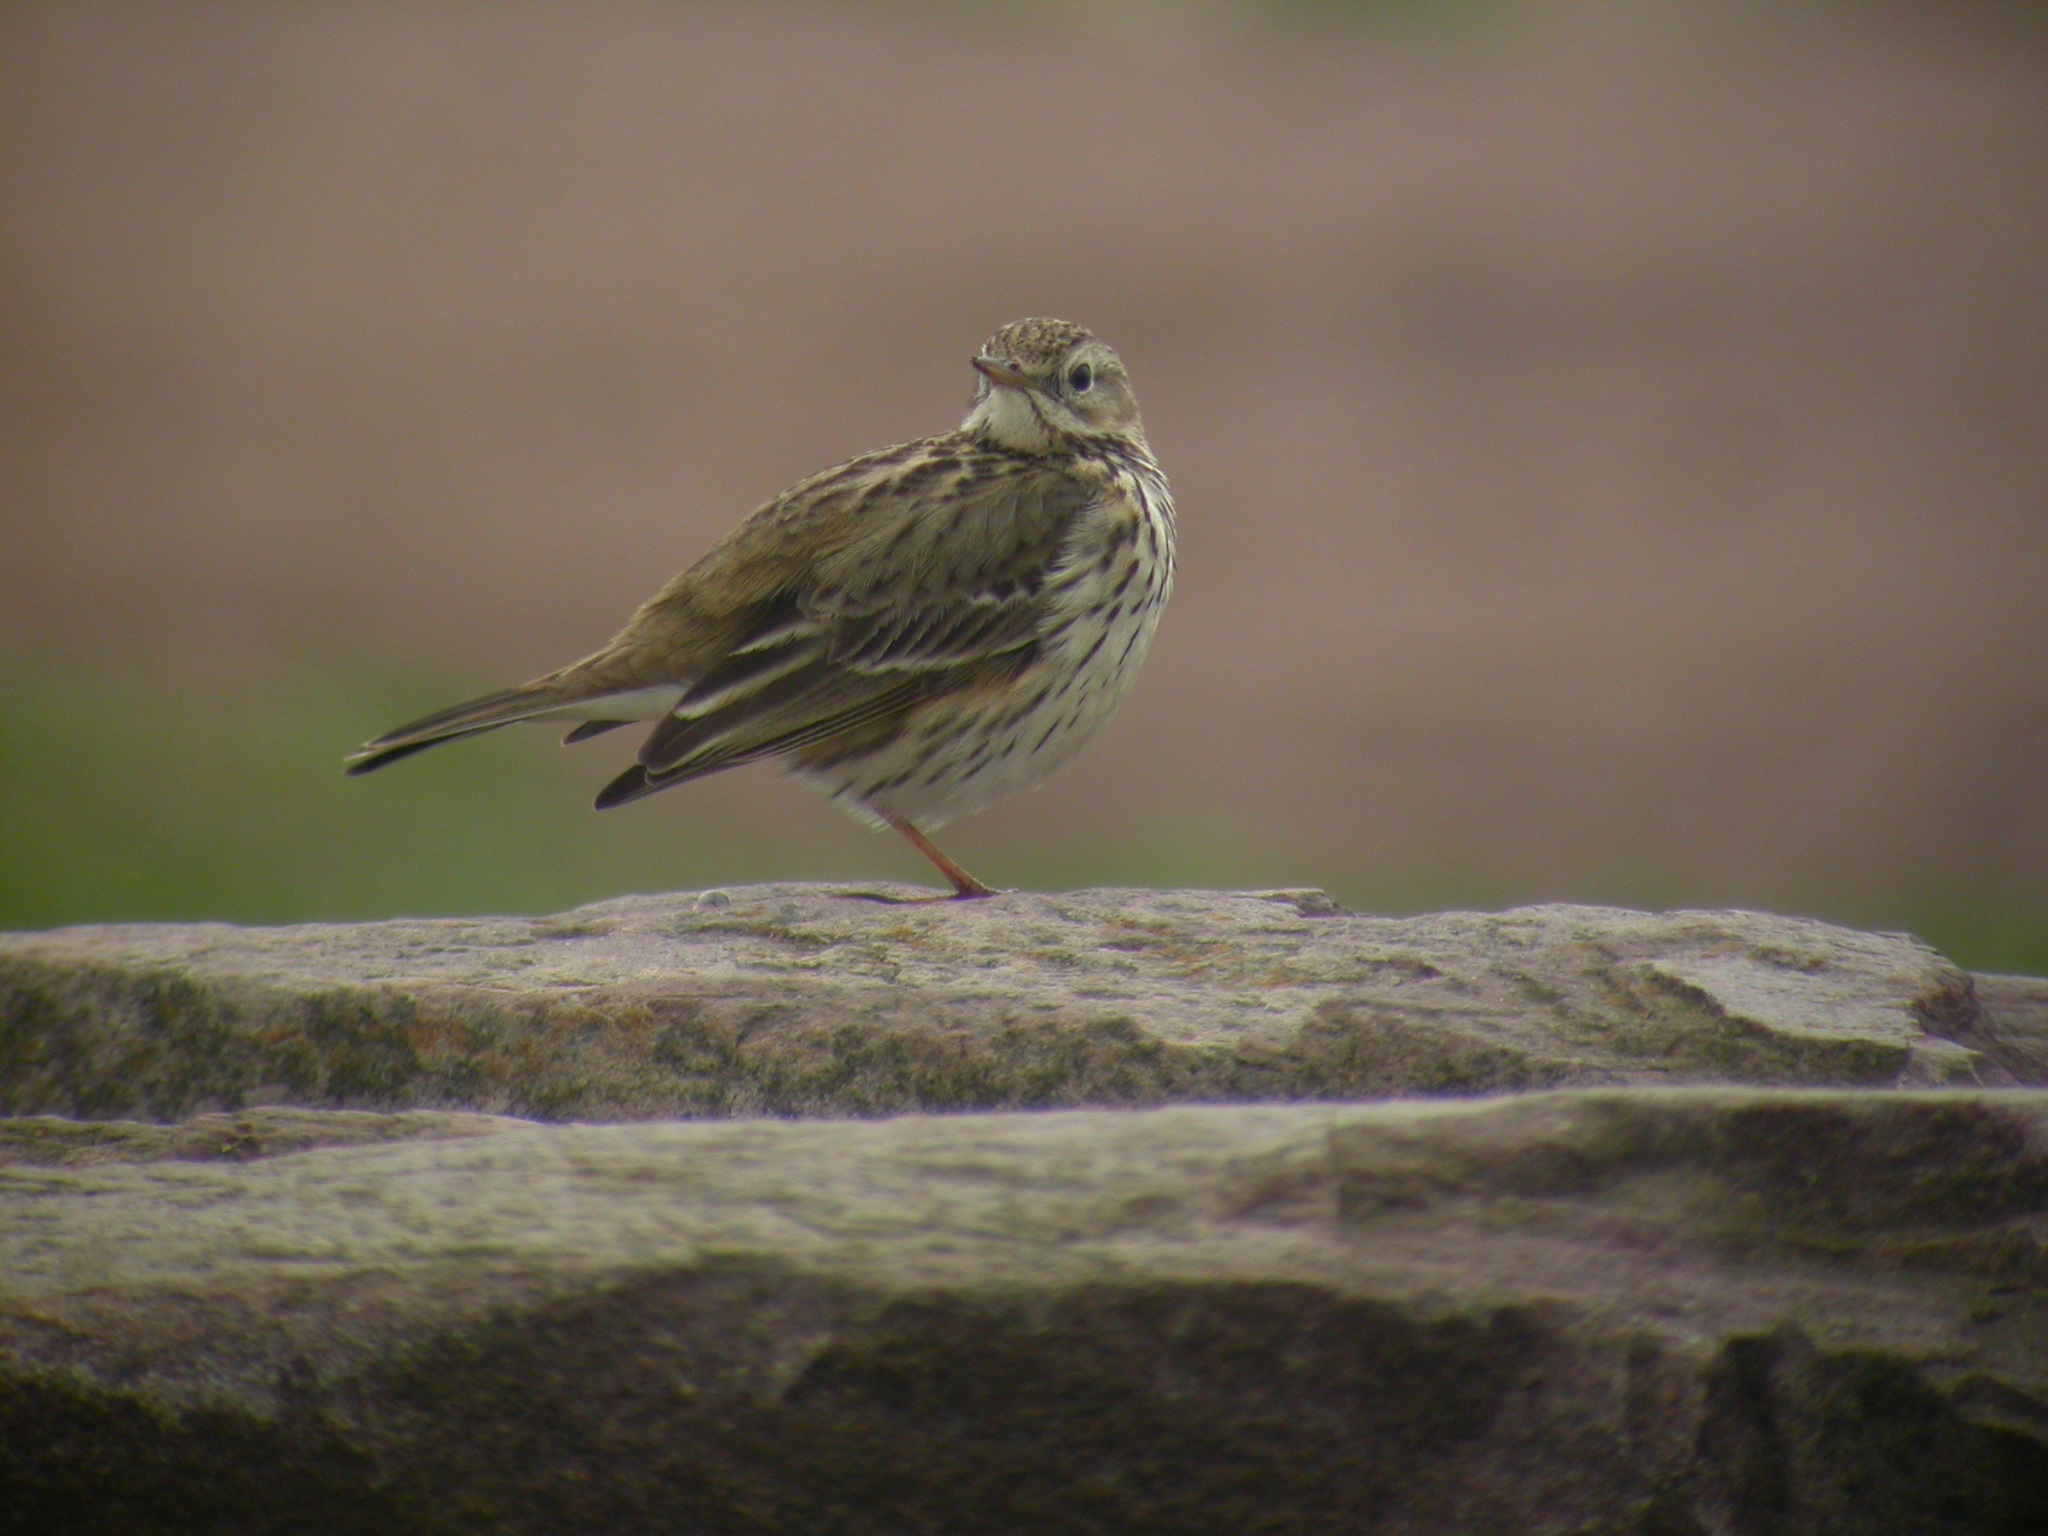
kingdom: Animalia
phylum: Chordata
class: Aves
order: Passeriformes
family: Motacillidae
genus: Anthus
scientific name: Anthus pratensis
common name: Meadow pipit
